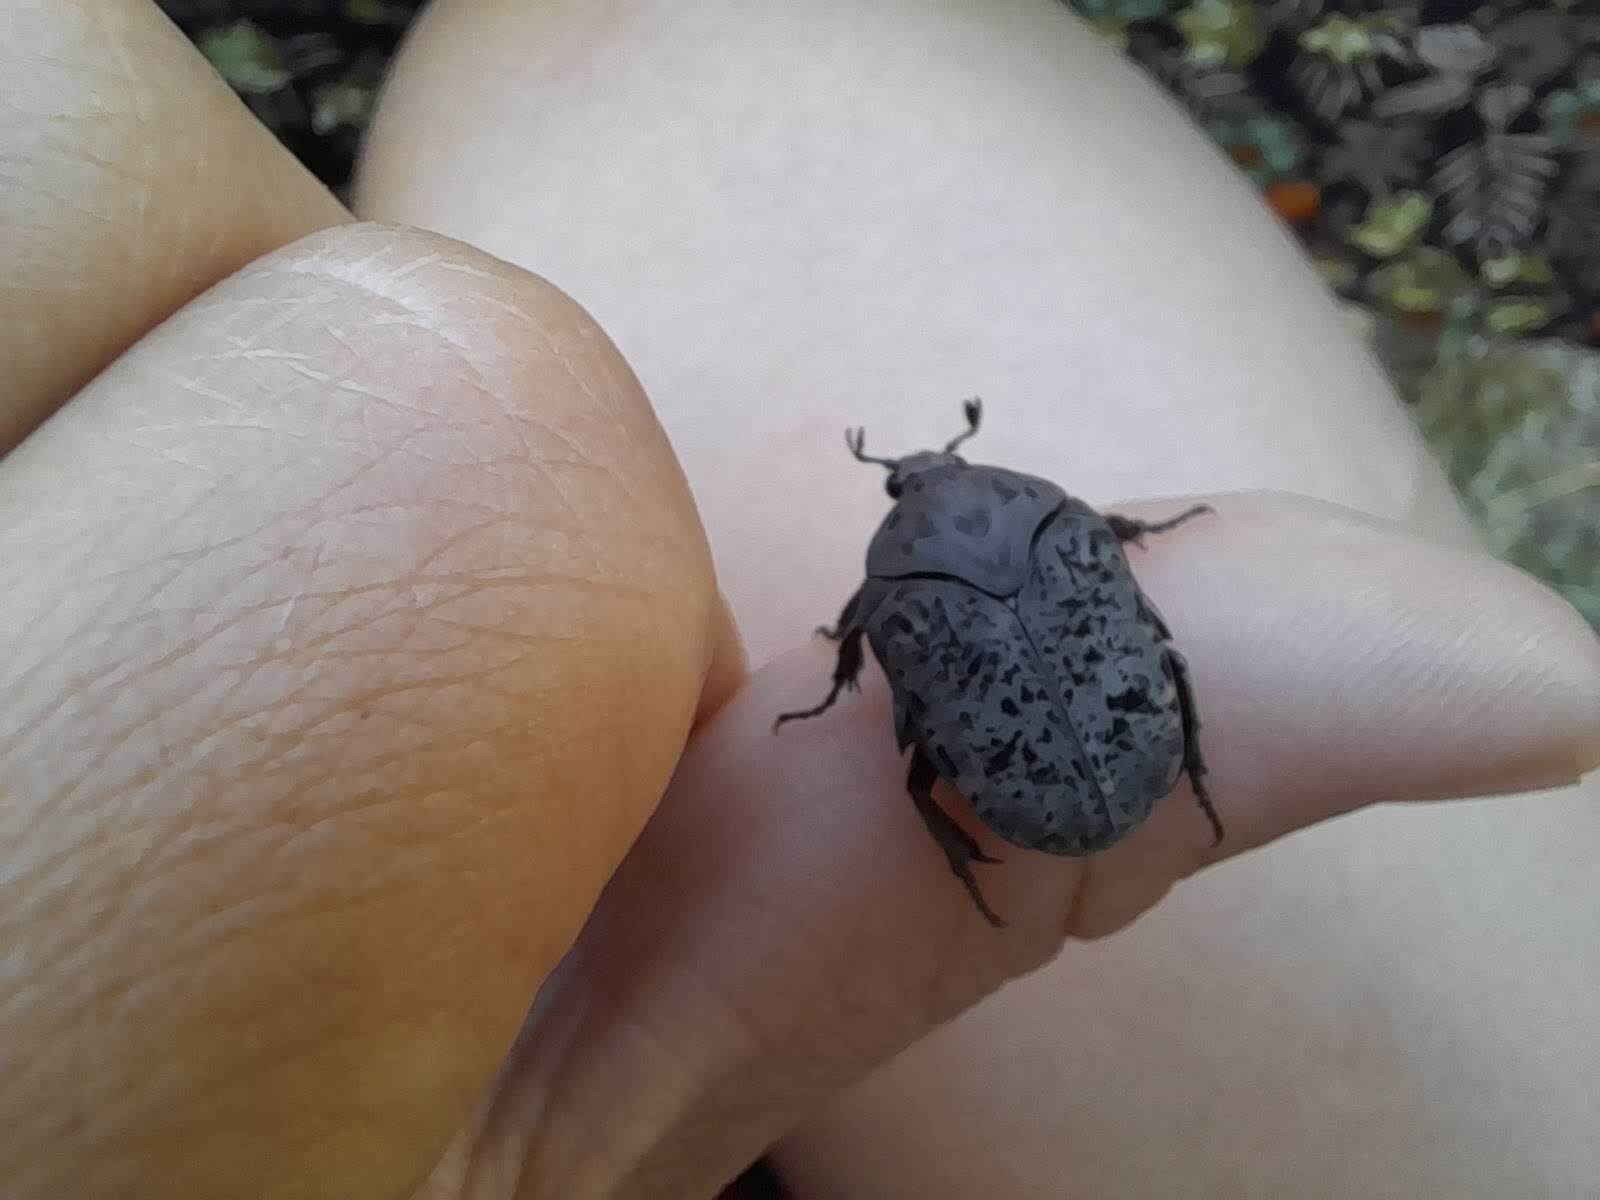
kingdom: Animalia
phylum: Arthropoda
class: Insecta
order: Coleoptera
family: Scarabaeidae
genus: Gymnetis
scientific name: Gymnetis chalcipes
